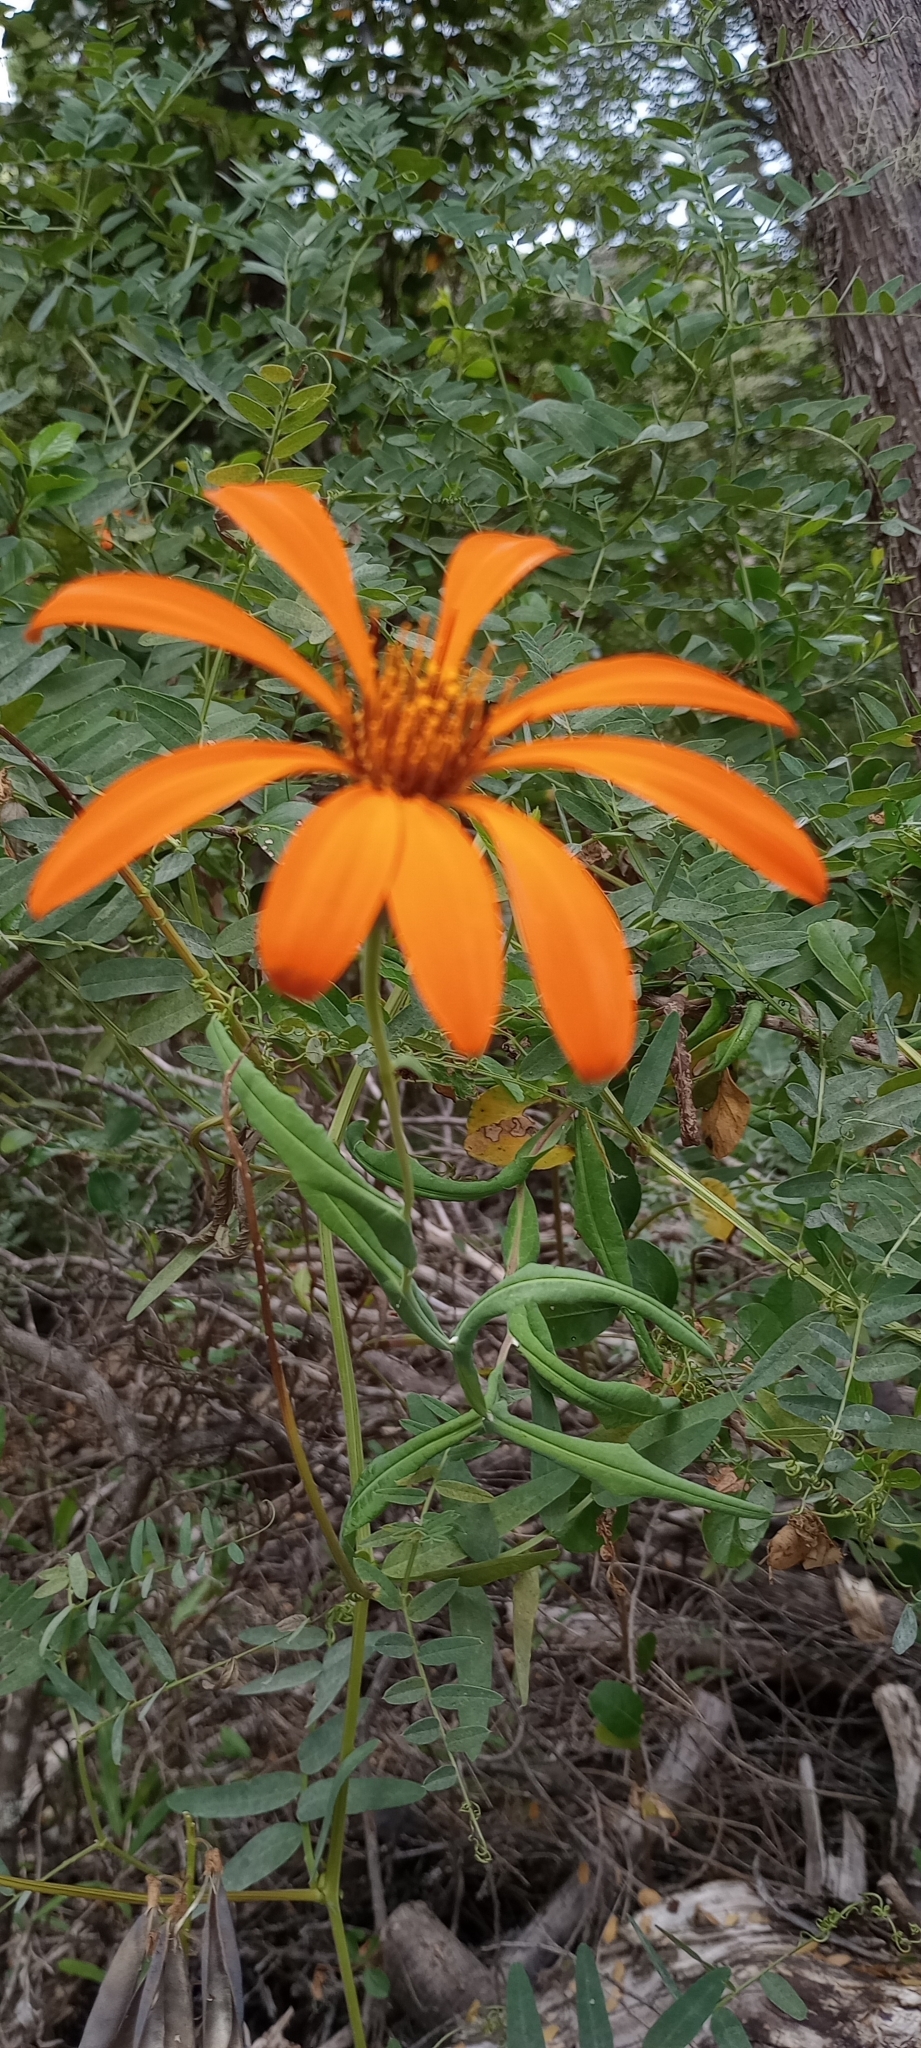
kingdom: Plantae
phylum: Tracheophyta
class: Magnoliopsida
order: Asterales
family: Asteraceae
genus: Mutisia
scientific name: Mutisia decurrens
